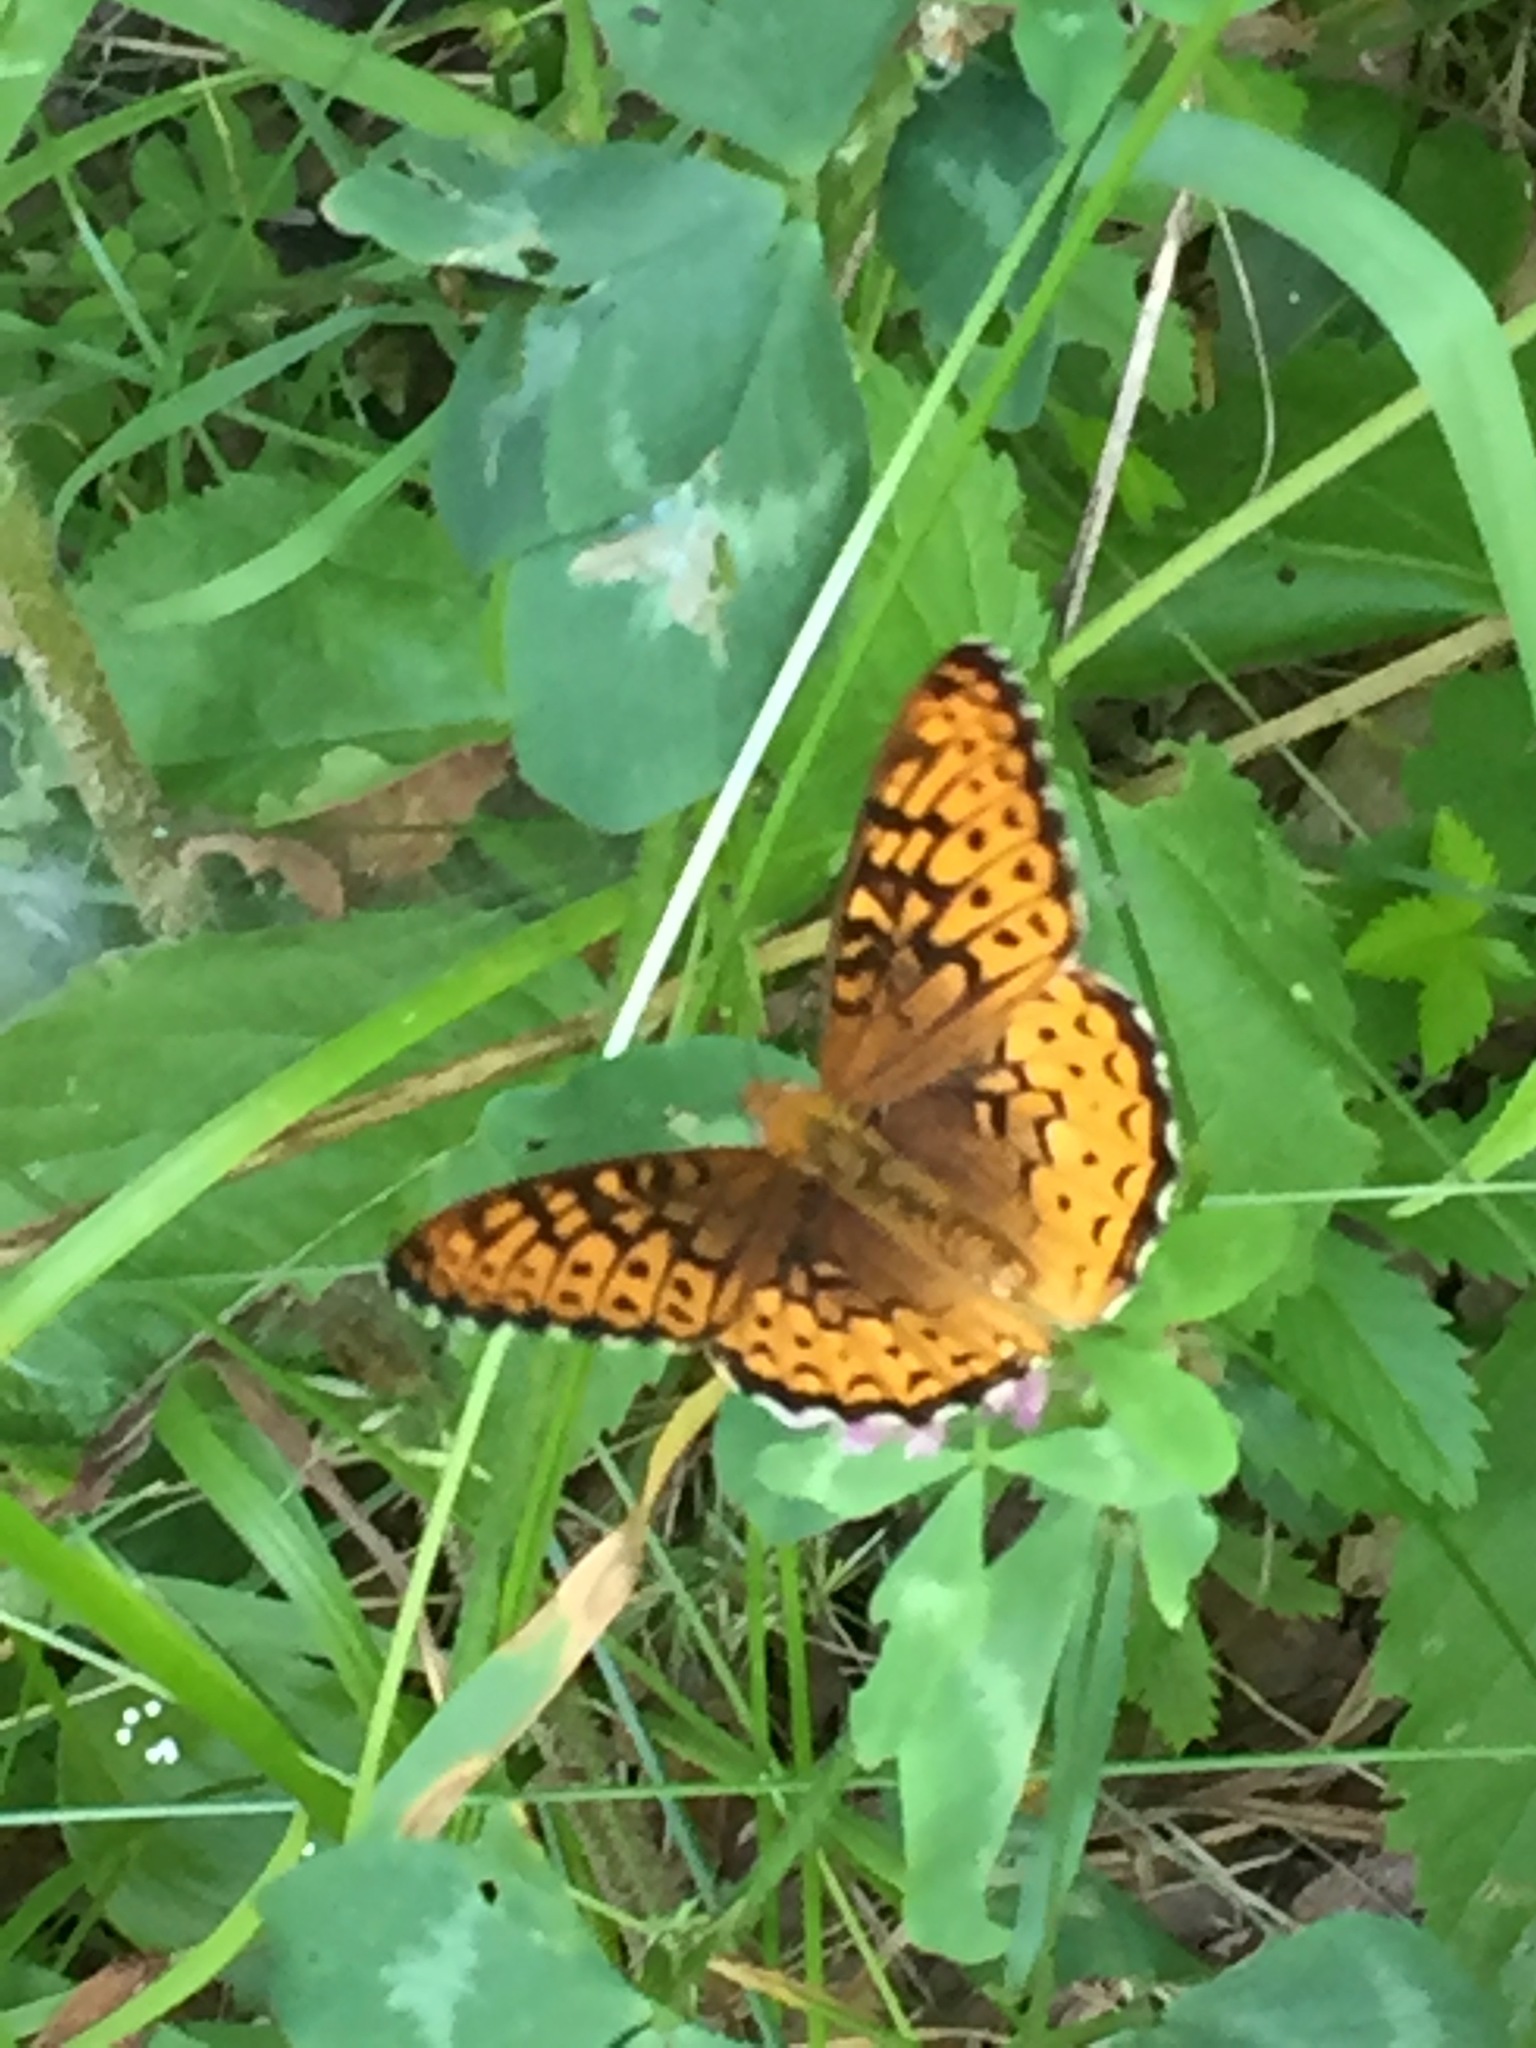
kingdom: Animalia
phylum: Arthropoda
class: Insecta
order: Lepidoptera
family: Nymphalidae
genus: Speyeria
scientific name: Speyeria atlantis
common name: Atlantis fritillary
